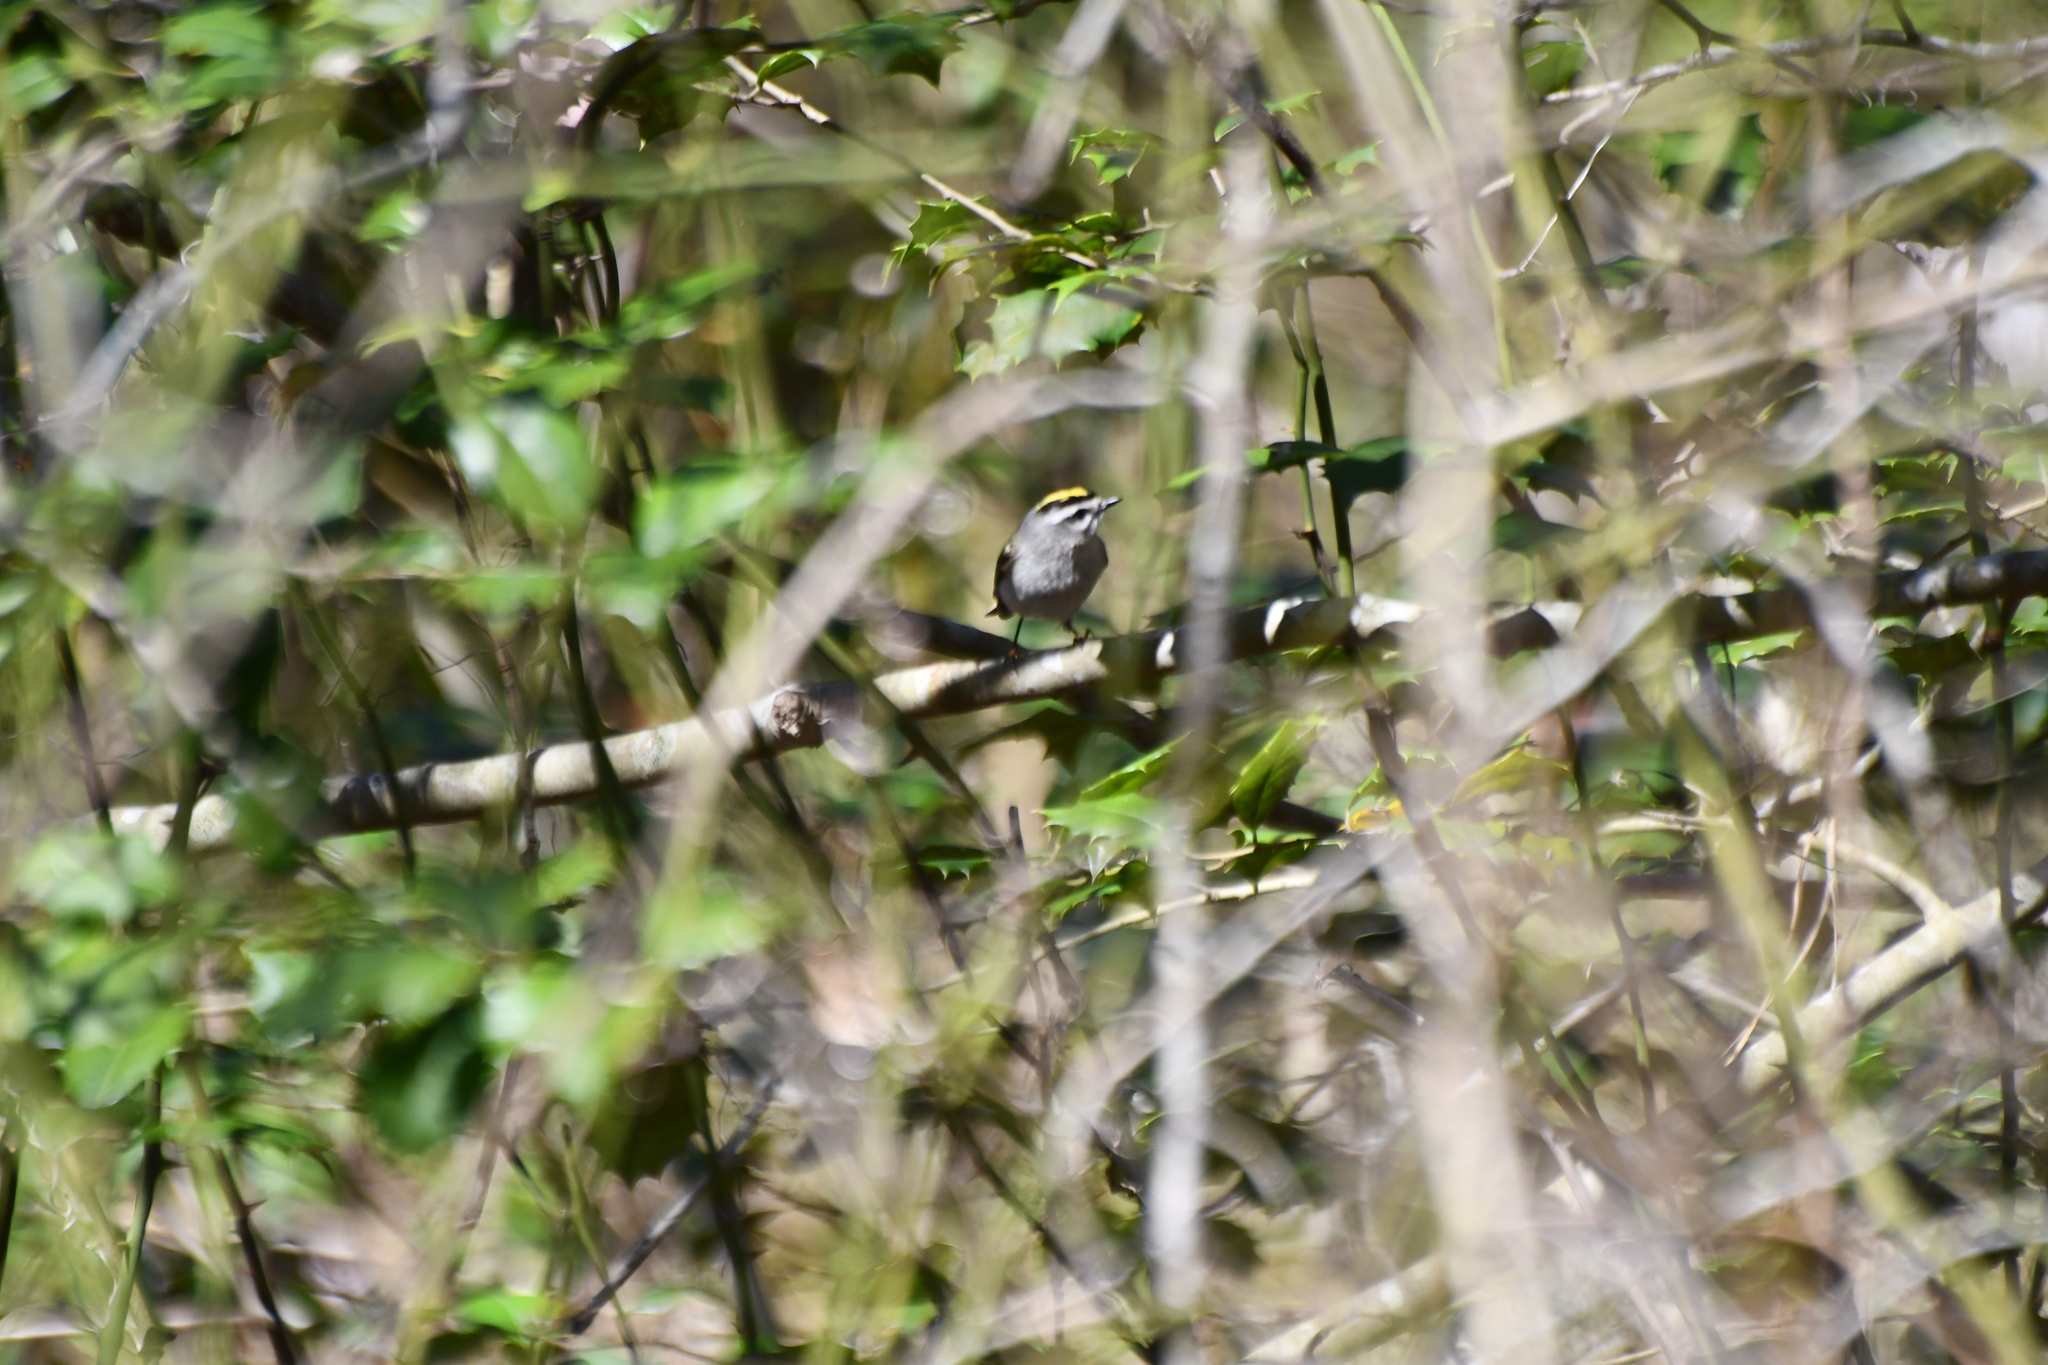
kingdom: Animalia
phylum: Chordata
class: Aves
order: Passeriformes
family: Regulidae
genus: Regulus
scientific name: Regulus satrapa
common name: Golden-crowned kinglet
